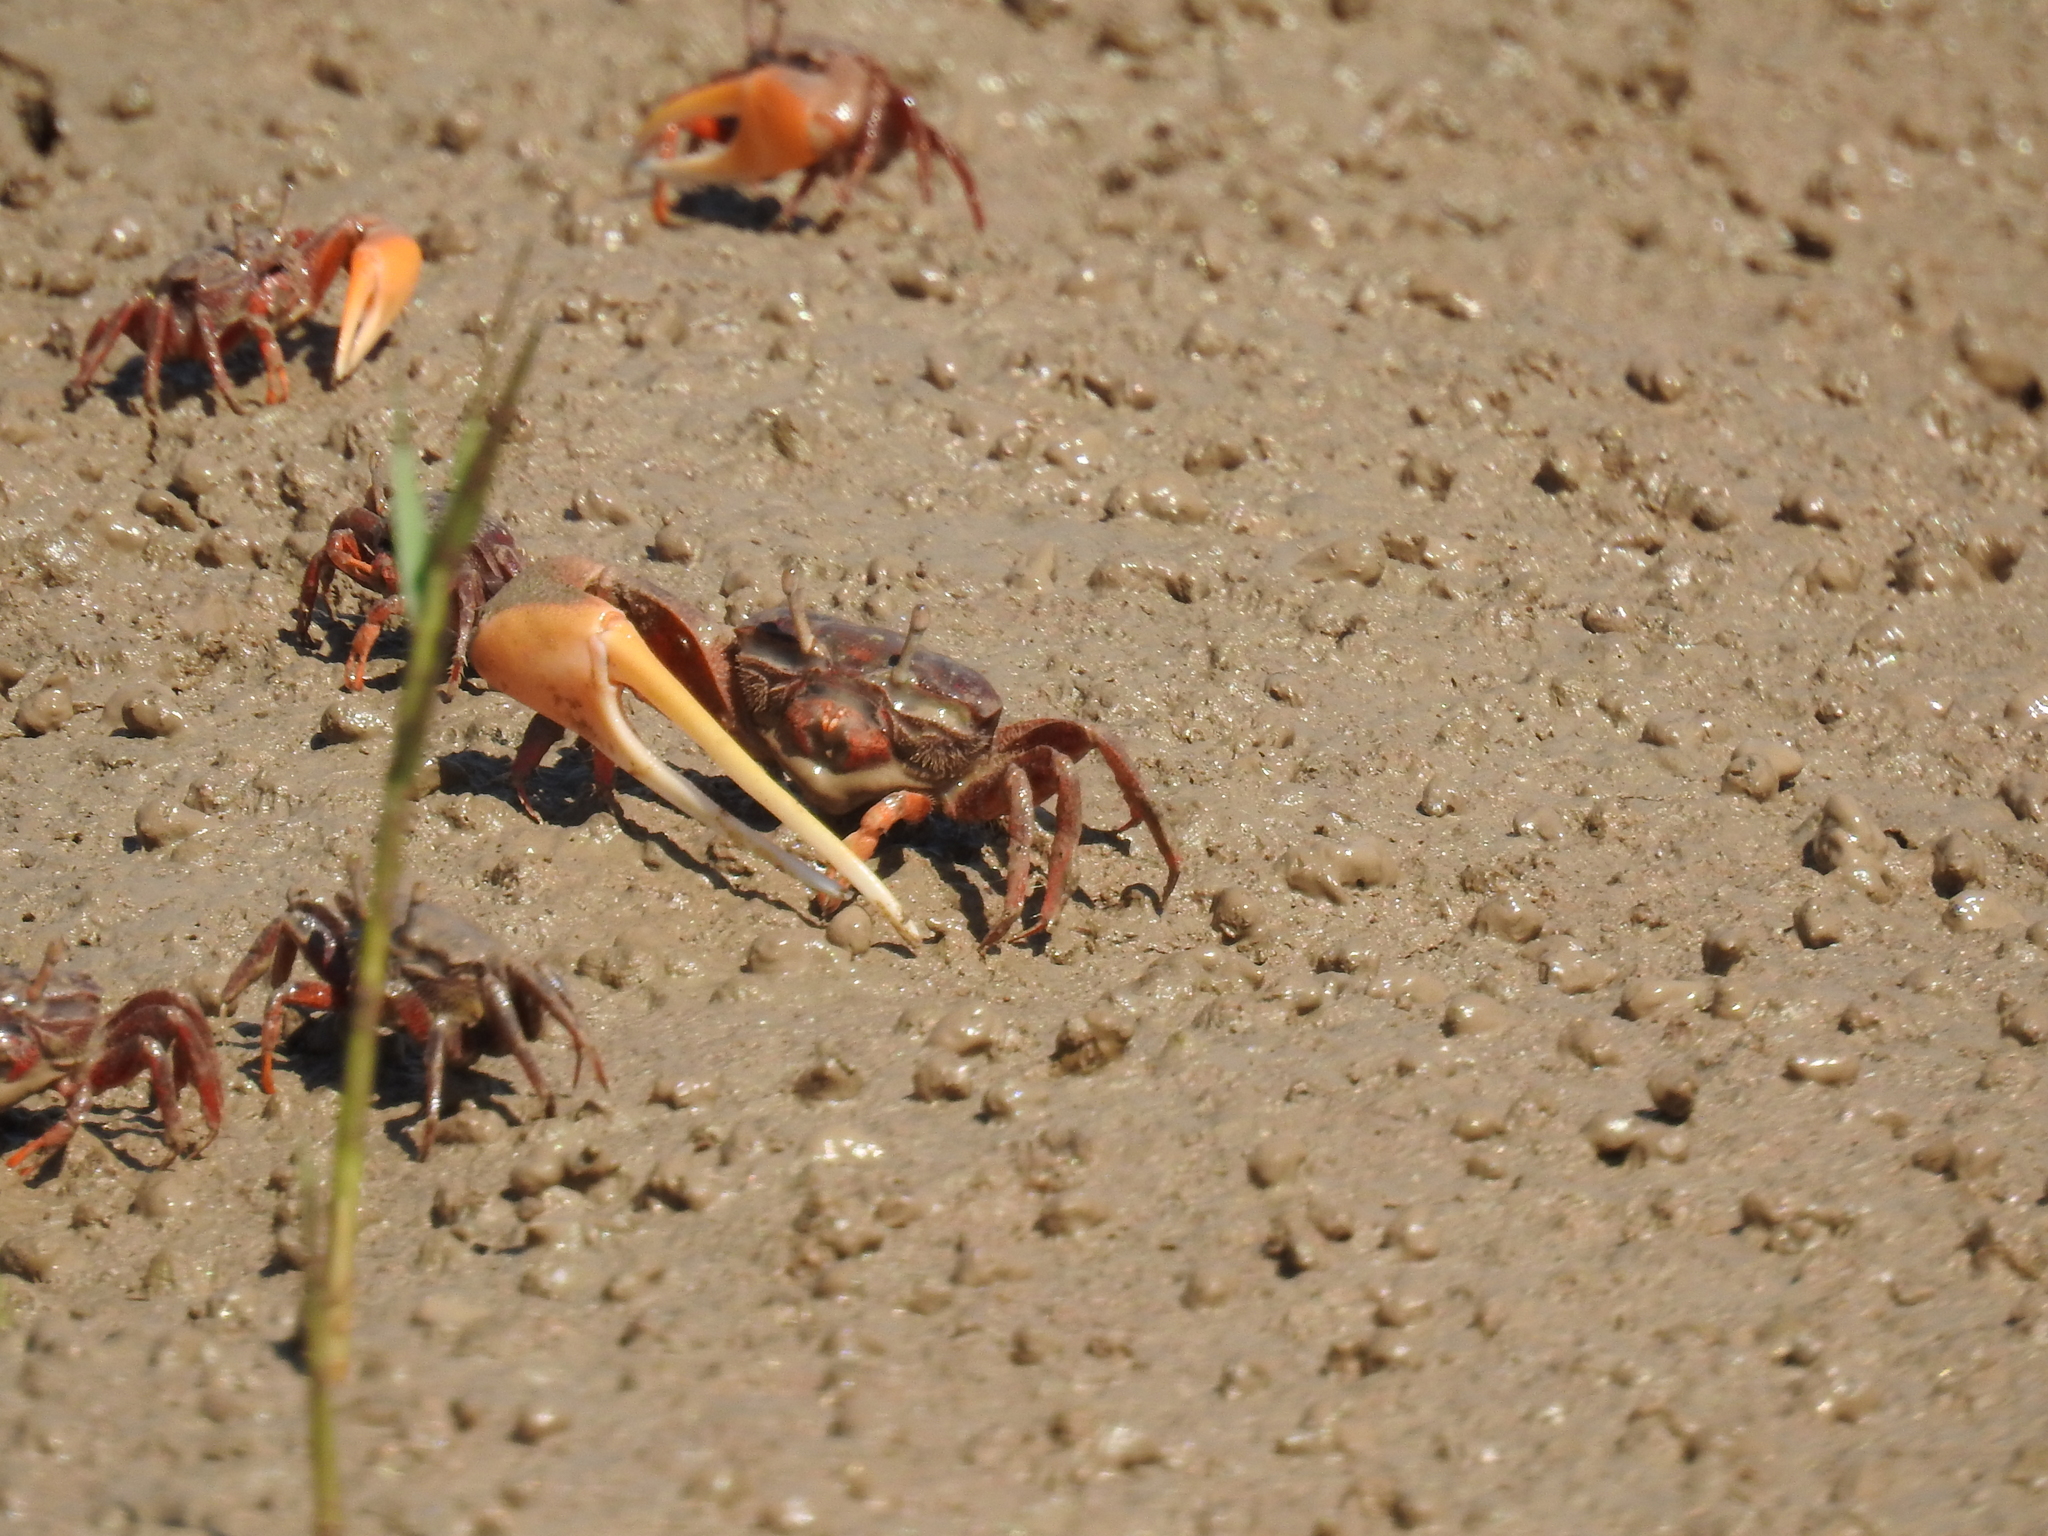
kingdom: Animalia
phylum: Arthropoda
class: Malacostraca
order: Decapoda
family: Ocypodidae
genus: Leptuca
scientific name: Leptuca coloradensis
